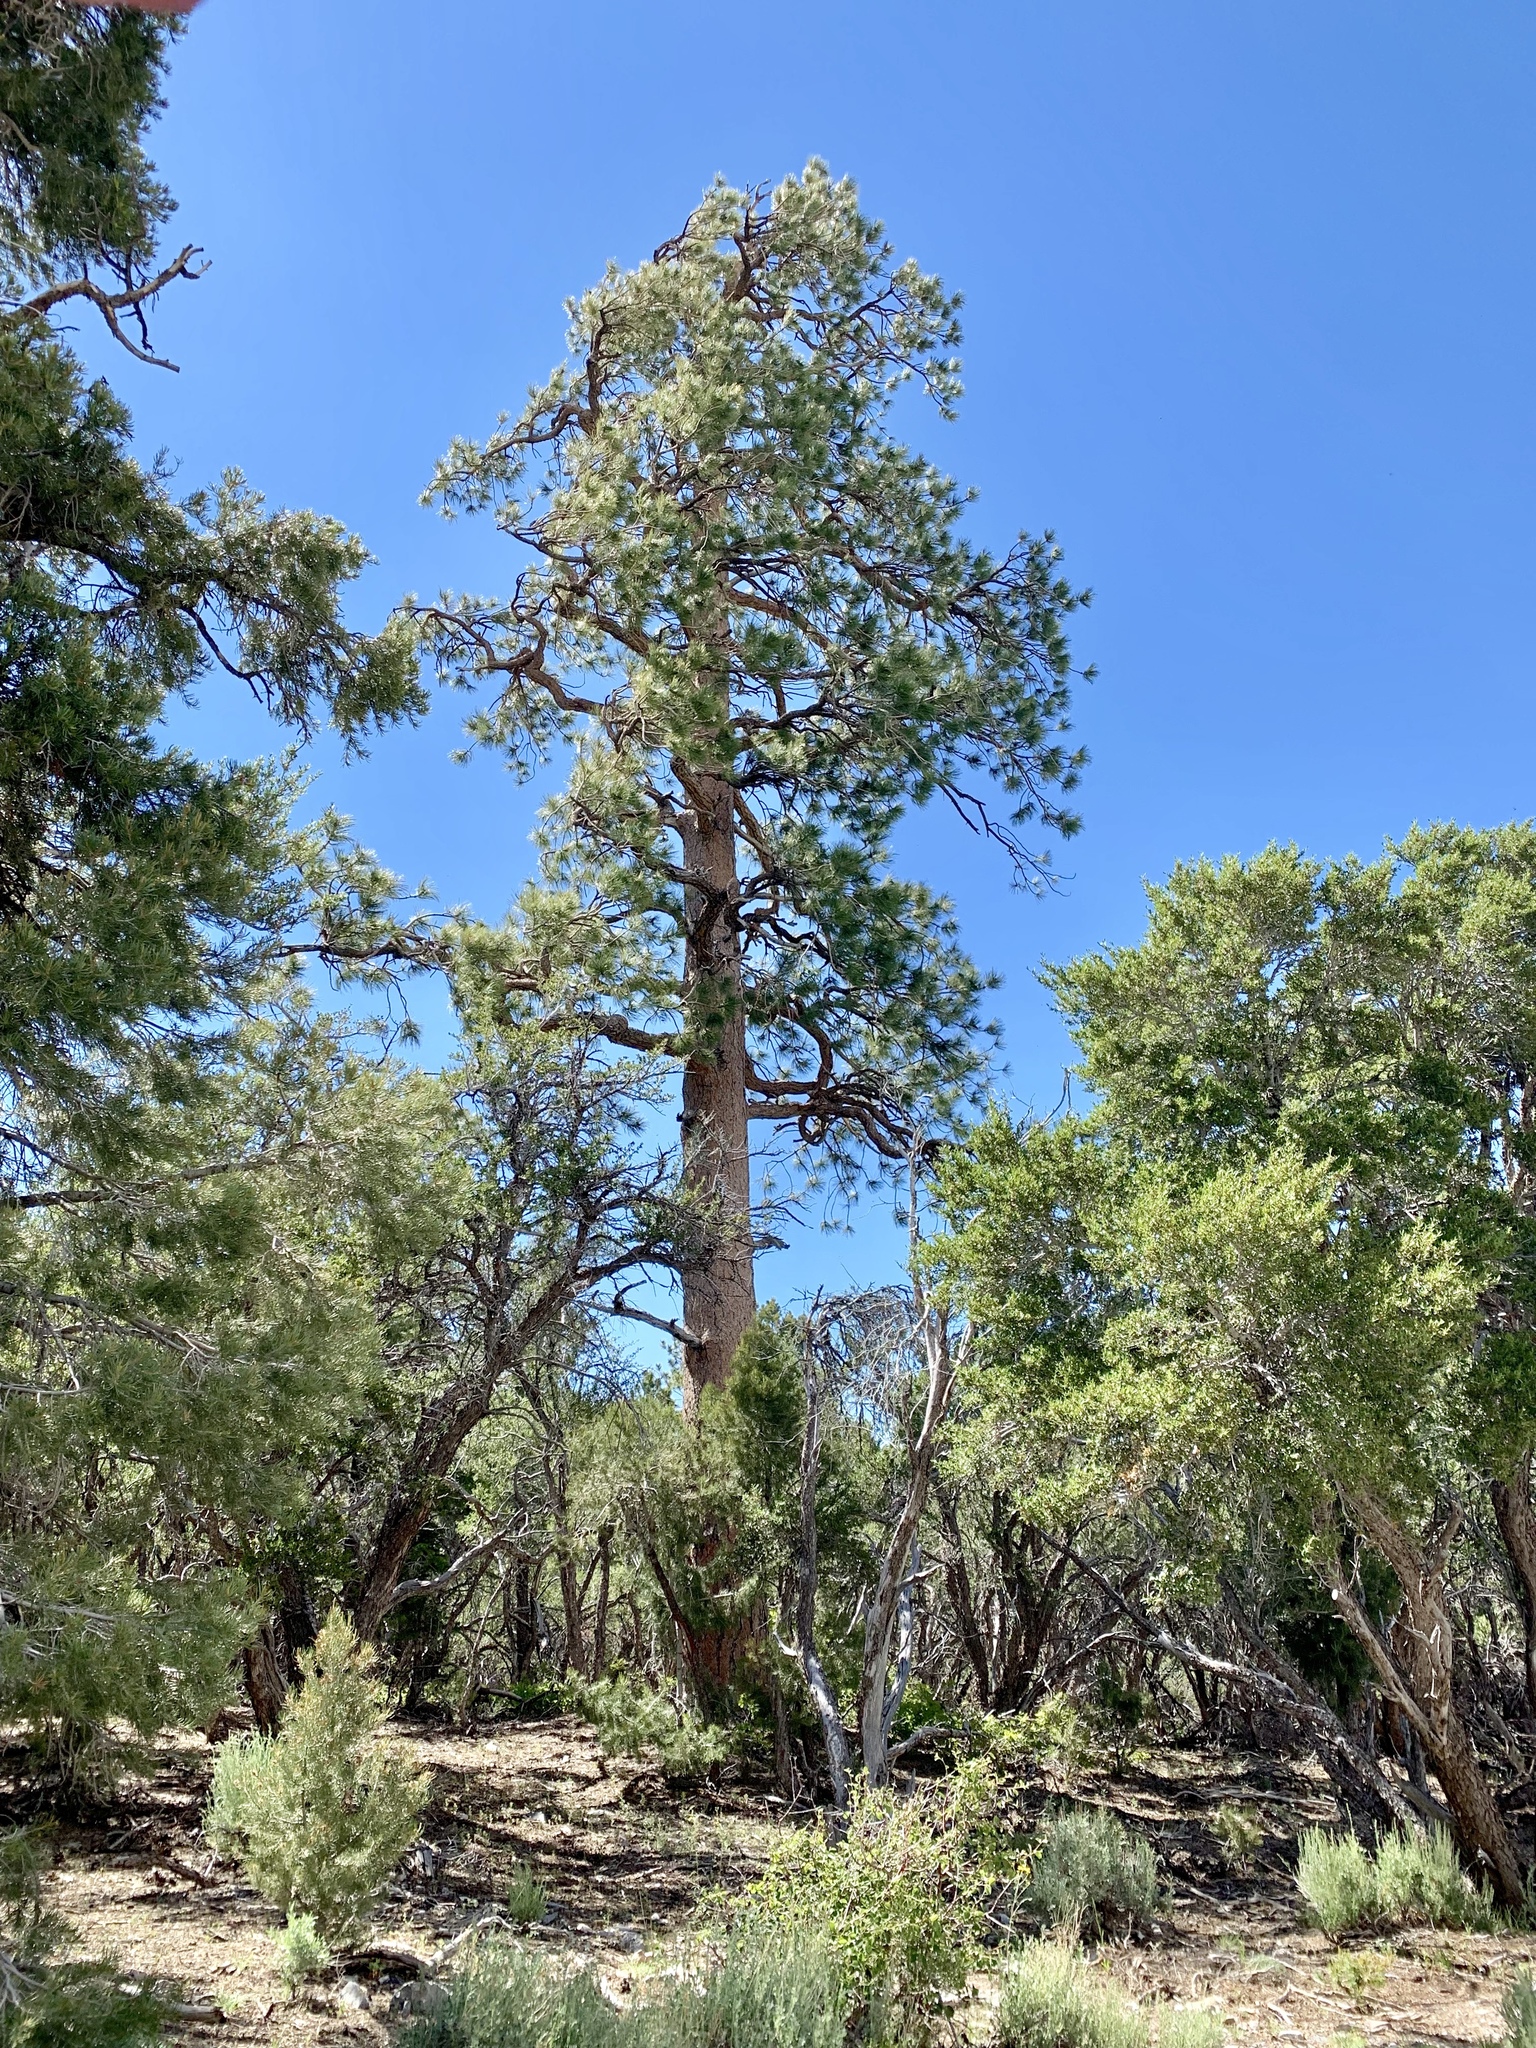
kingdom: Plantae
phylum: Tracheophyta
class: Pinopsida
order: Pinales
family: Pinaceae
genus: Pinus
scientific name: Pinus ponderosa
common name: Western yellow-pine
